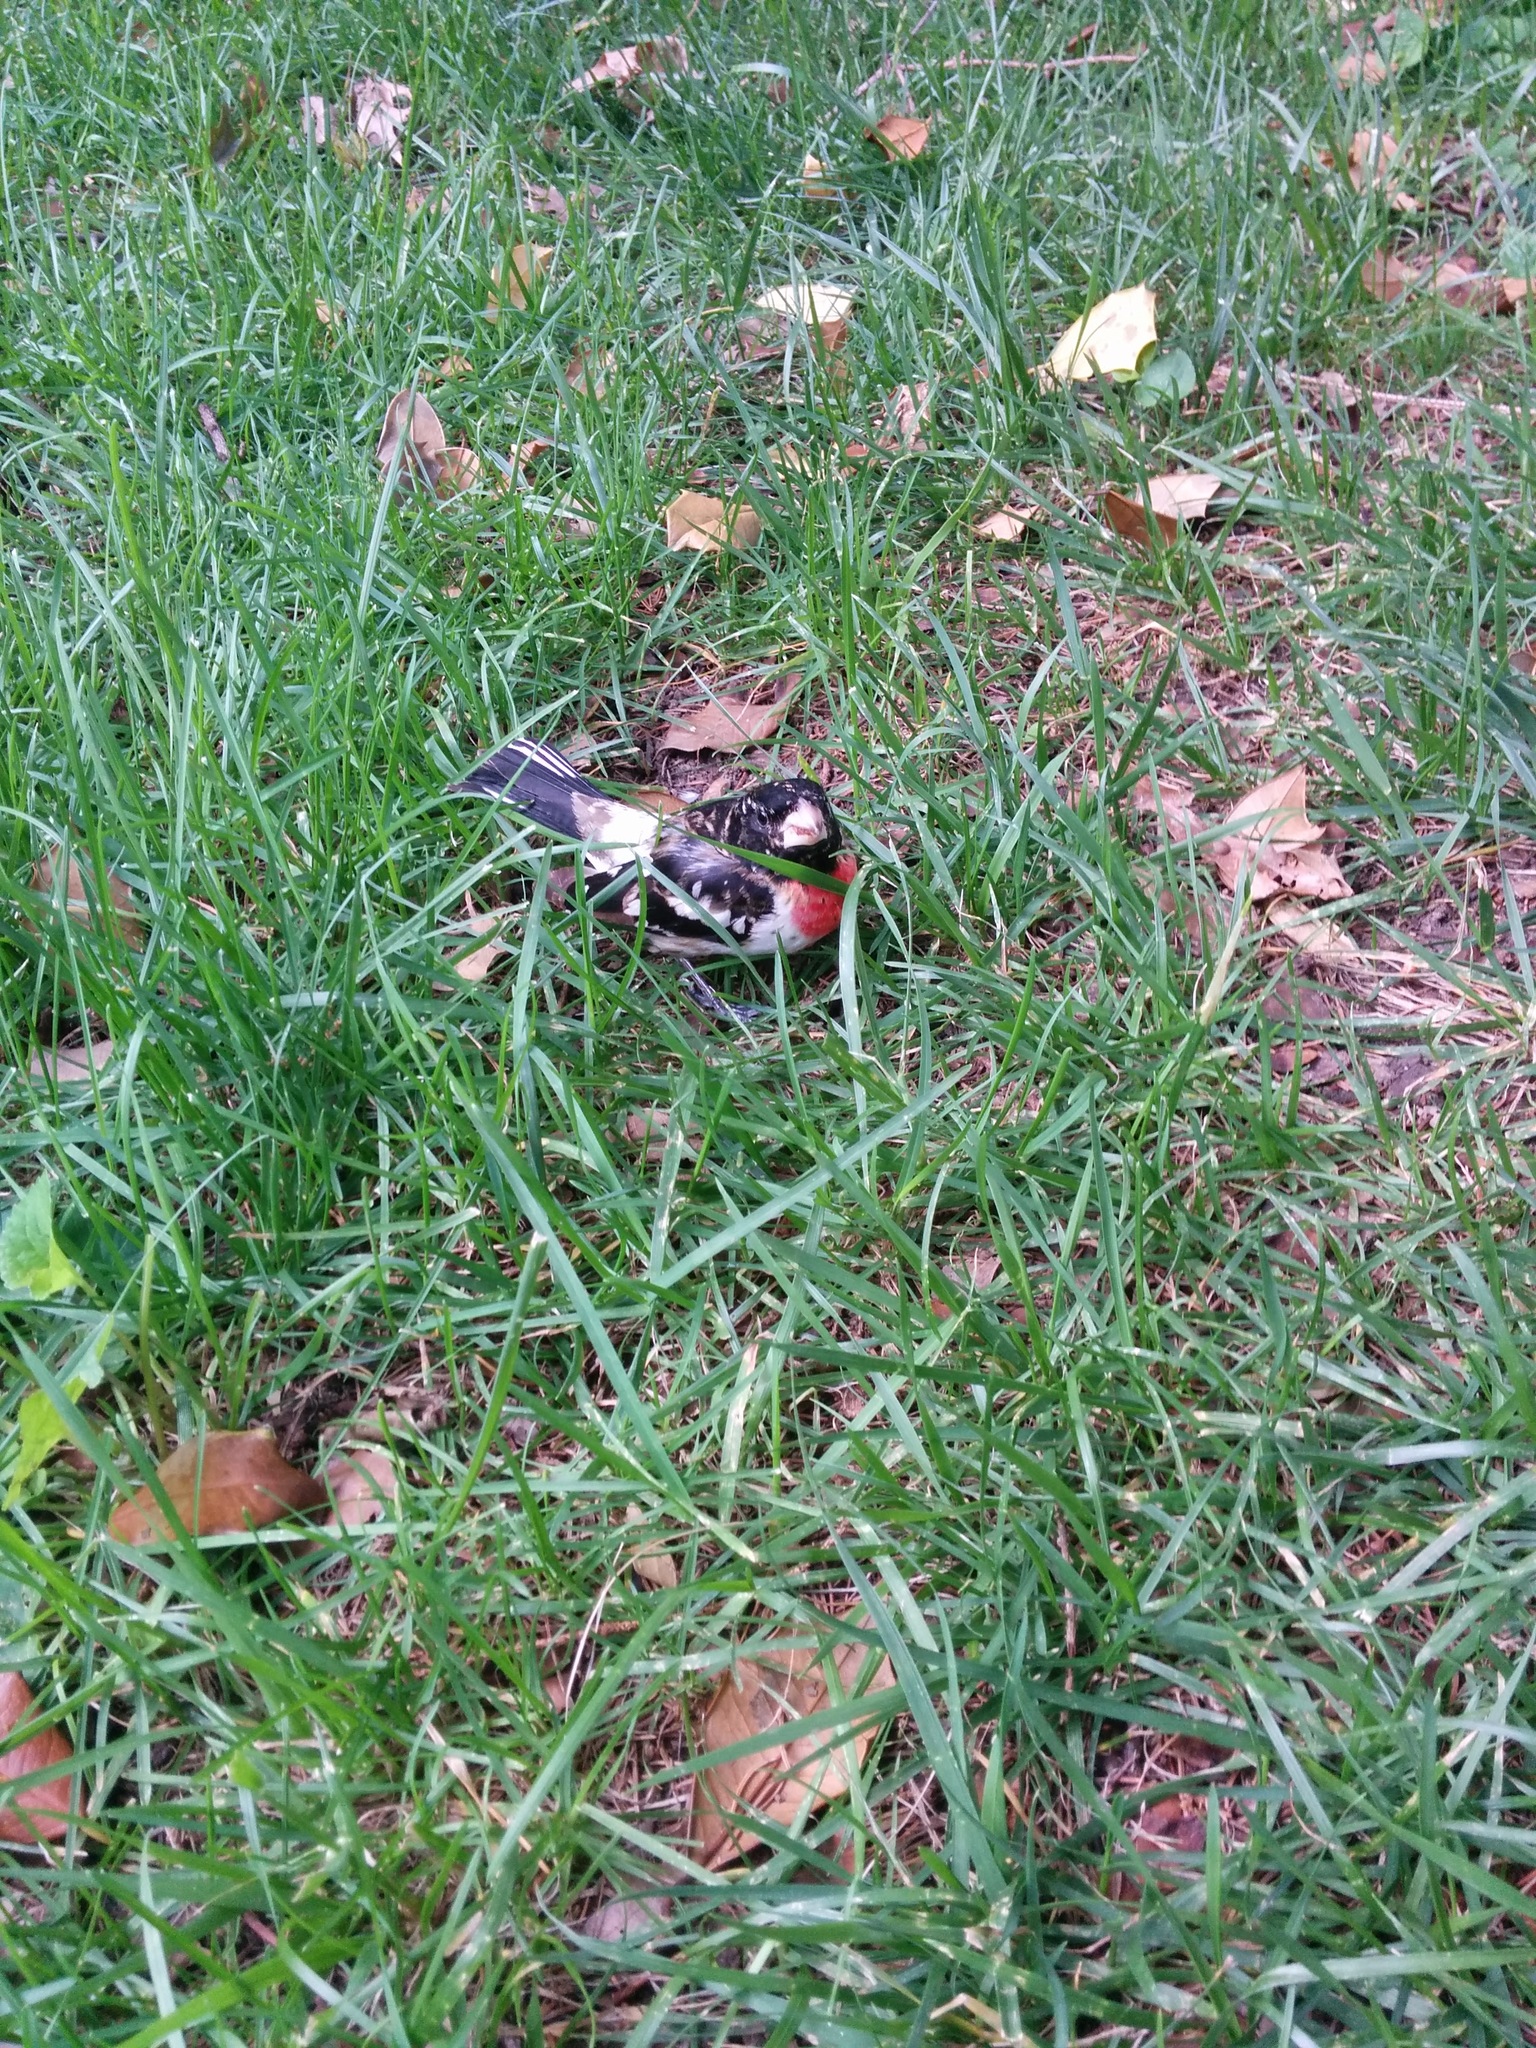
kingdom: Animalia
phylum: Chordata
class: Aves
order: Passeriformes
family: Cardinalidae
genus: Pheucticus
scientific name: Pheucticus ludovicianus
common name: Rose-breasted grosbeak
